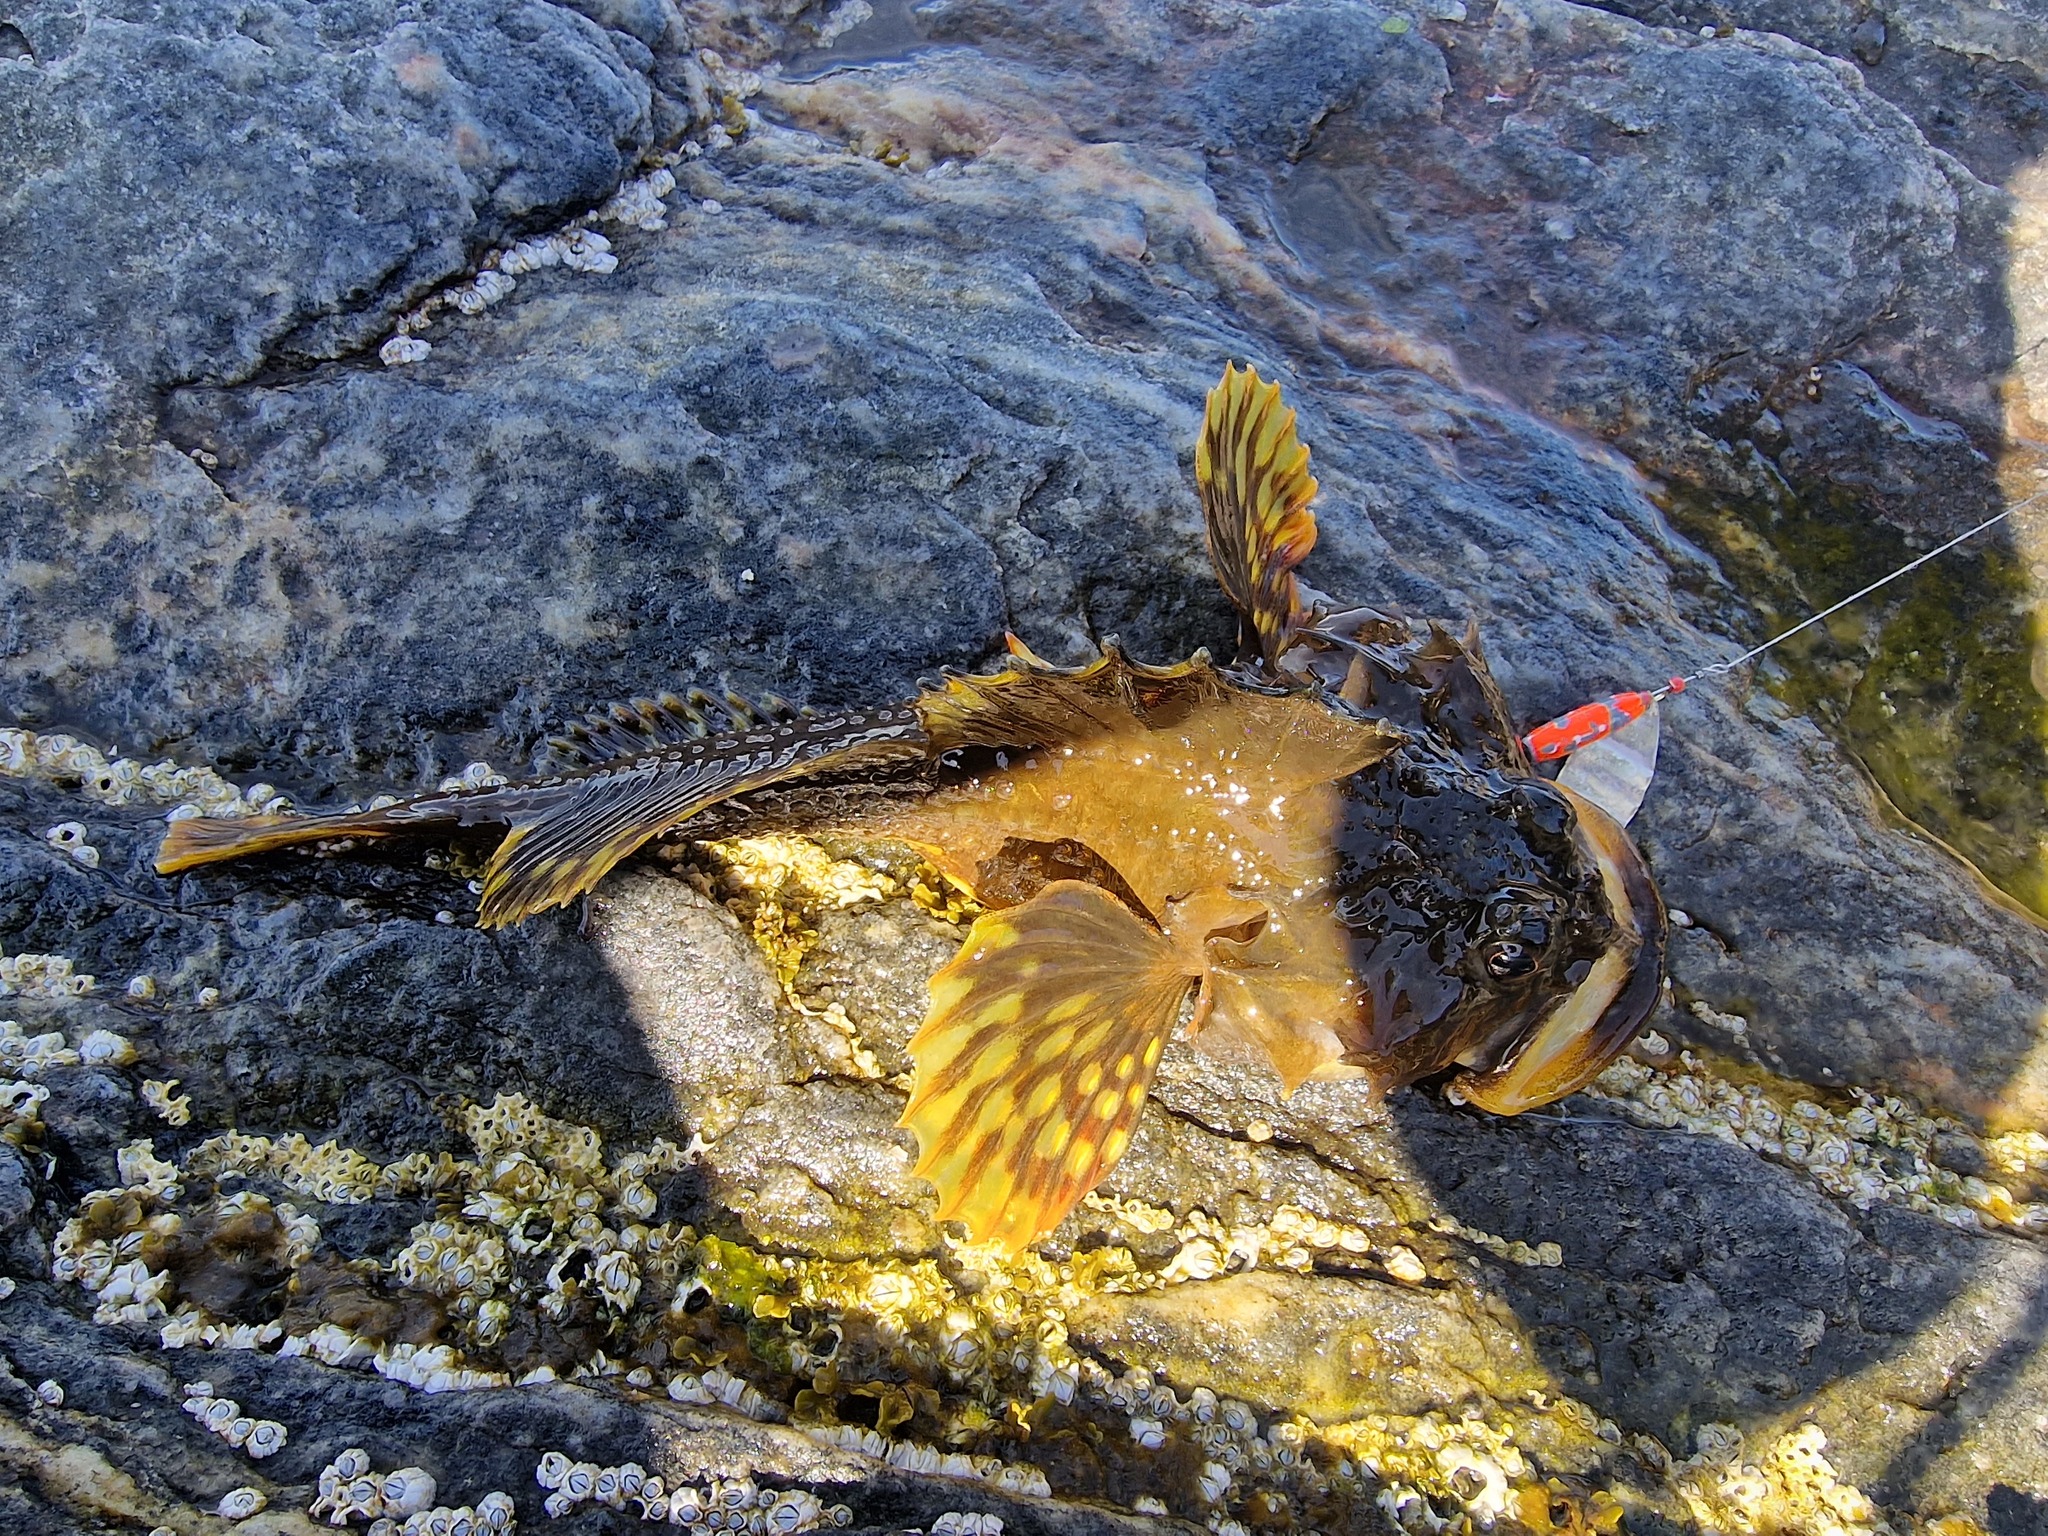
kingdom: Animalia
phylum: Chordata
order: Scorpaeniformes
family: Cottidae
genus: Myoxocephalus
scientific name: Myoxocephalus scorpius
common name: Shorthorn sculpin
